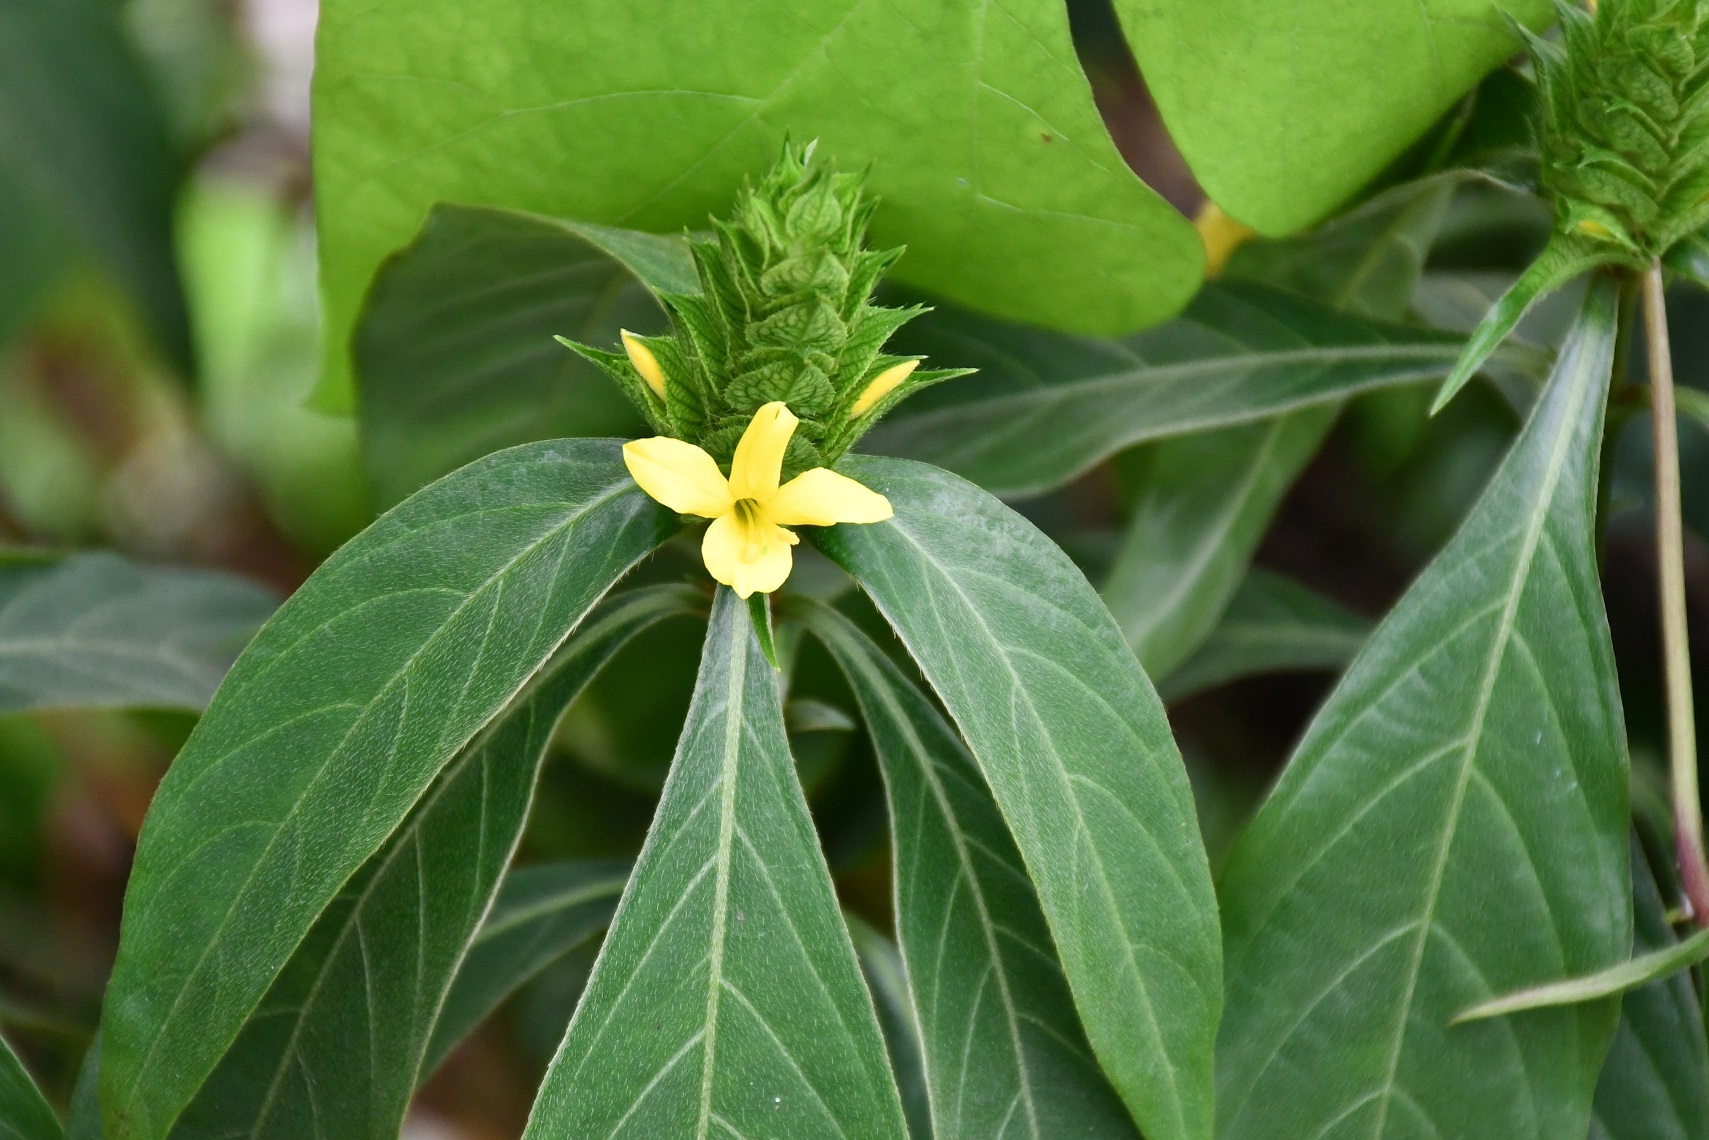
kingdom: Plantae
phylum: Tracheophyta
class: Magnoliopsida
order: Lamiales
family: Acanthaceae
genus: Barleria
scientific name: Barleria oenotheroides
